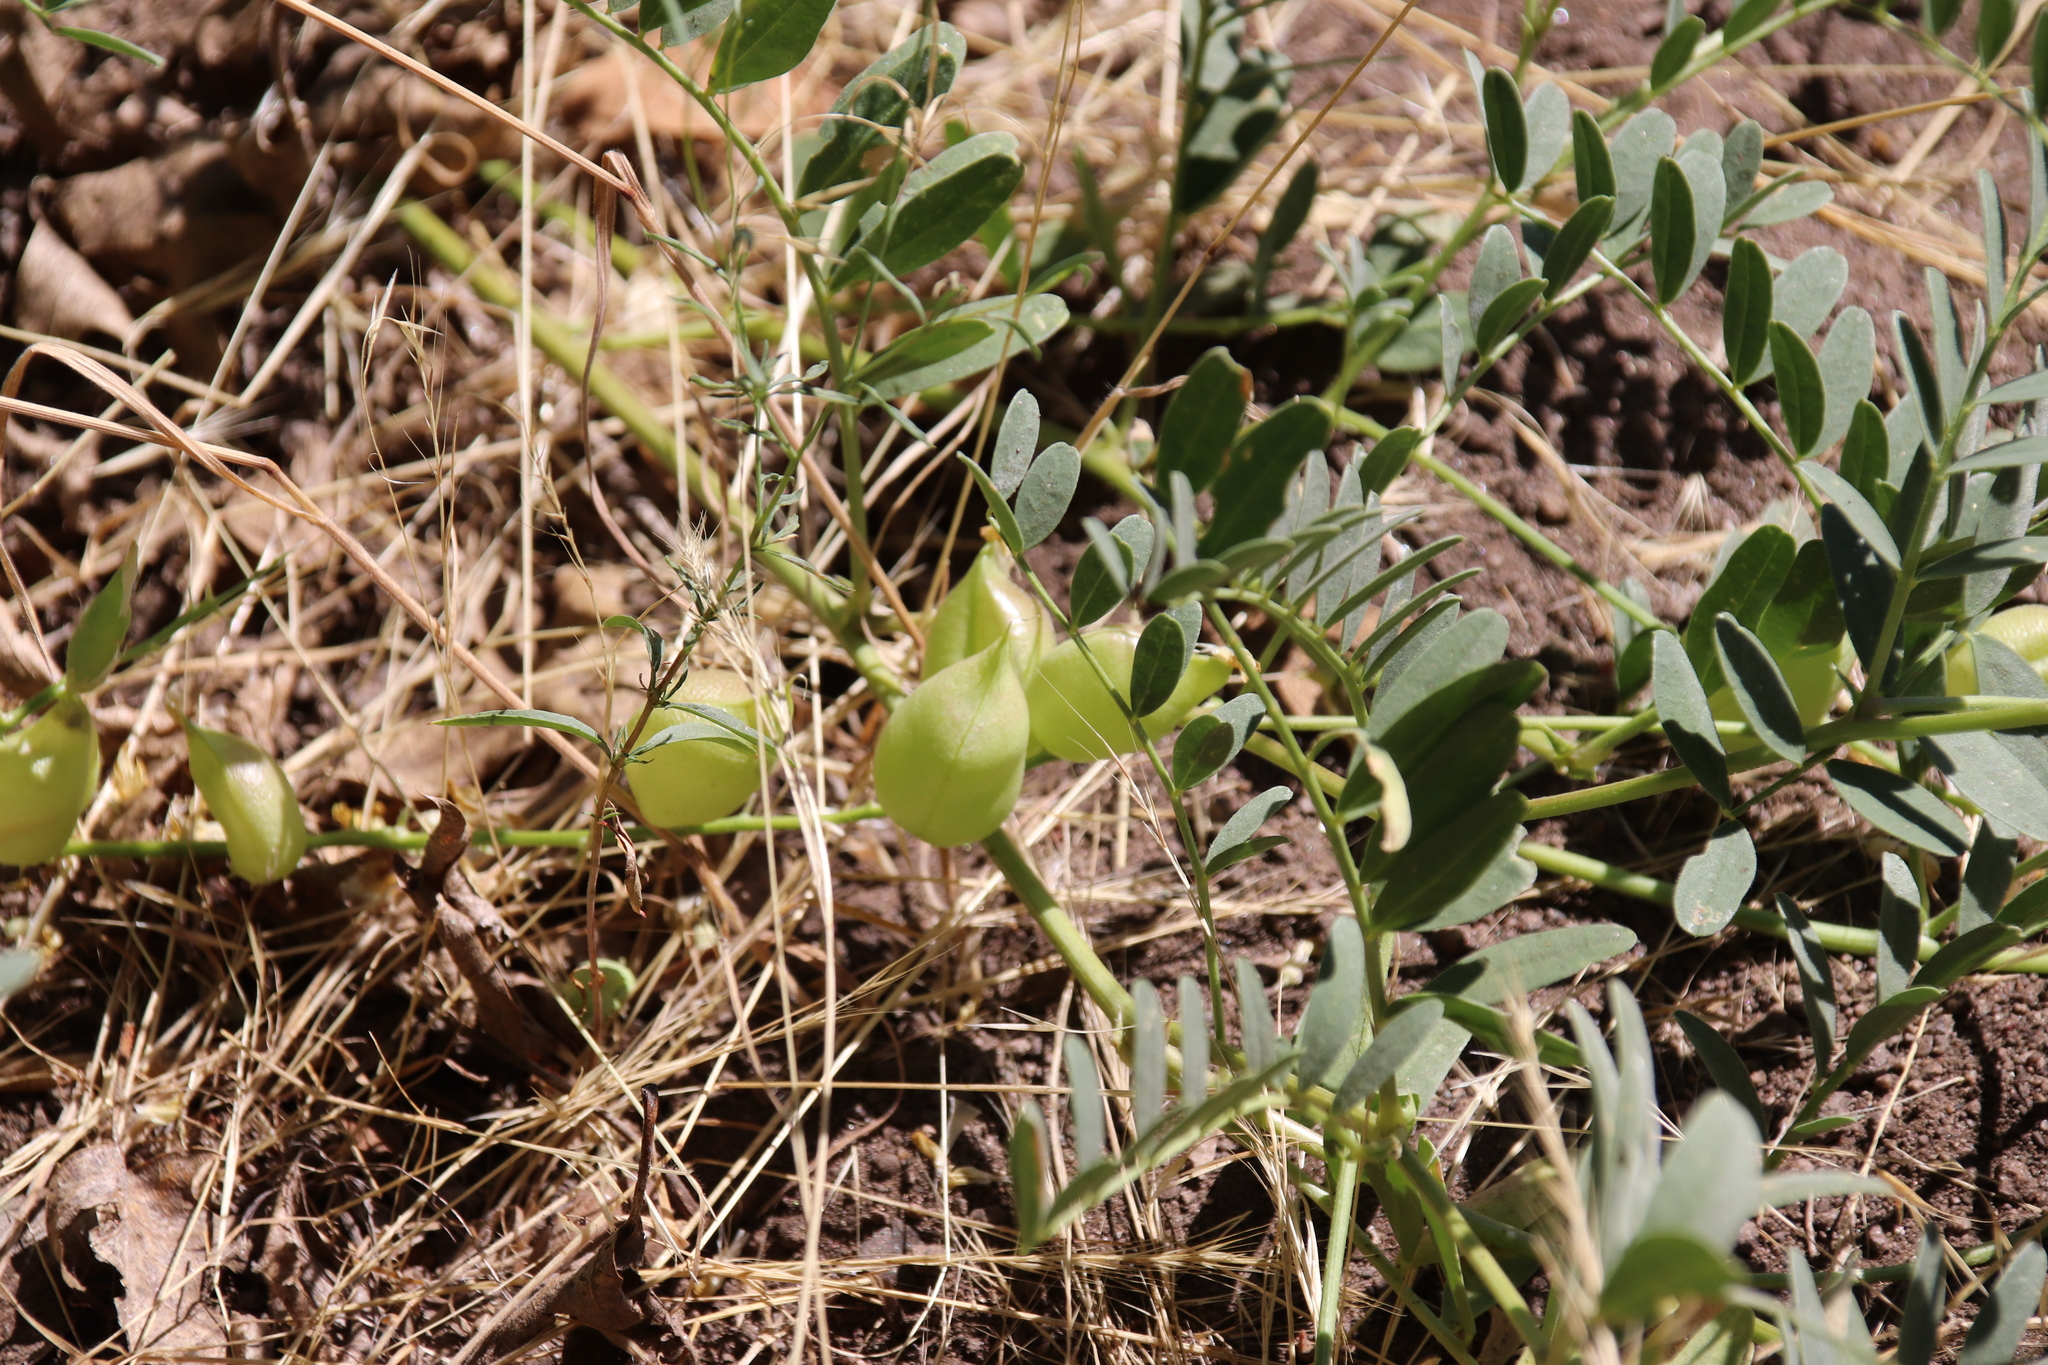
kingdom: Plantae
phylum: Tracheophyta
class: Magnoliopsida
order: Fabales
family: Fabaceae
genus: Astragalus
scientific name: Astragalus douglasii
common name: Jacumba milkvetch
